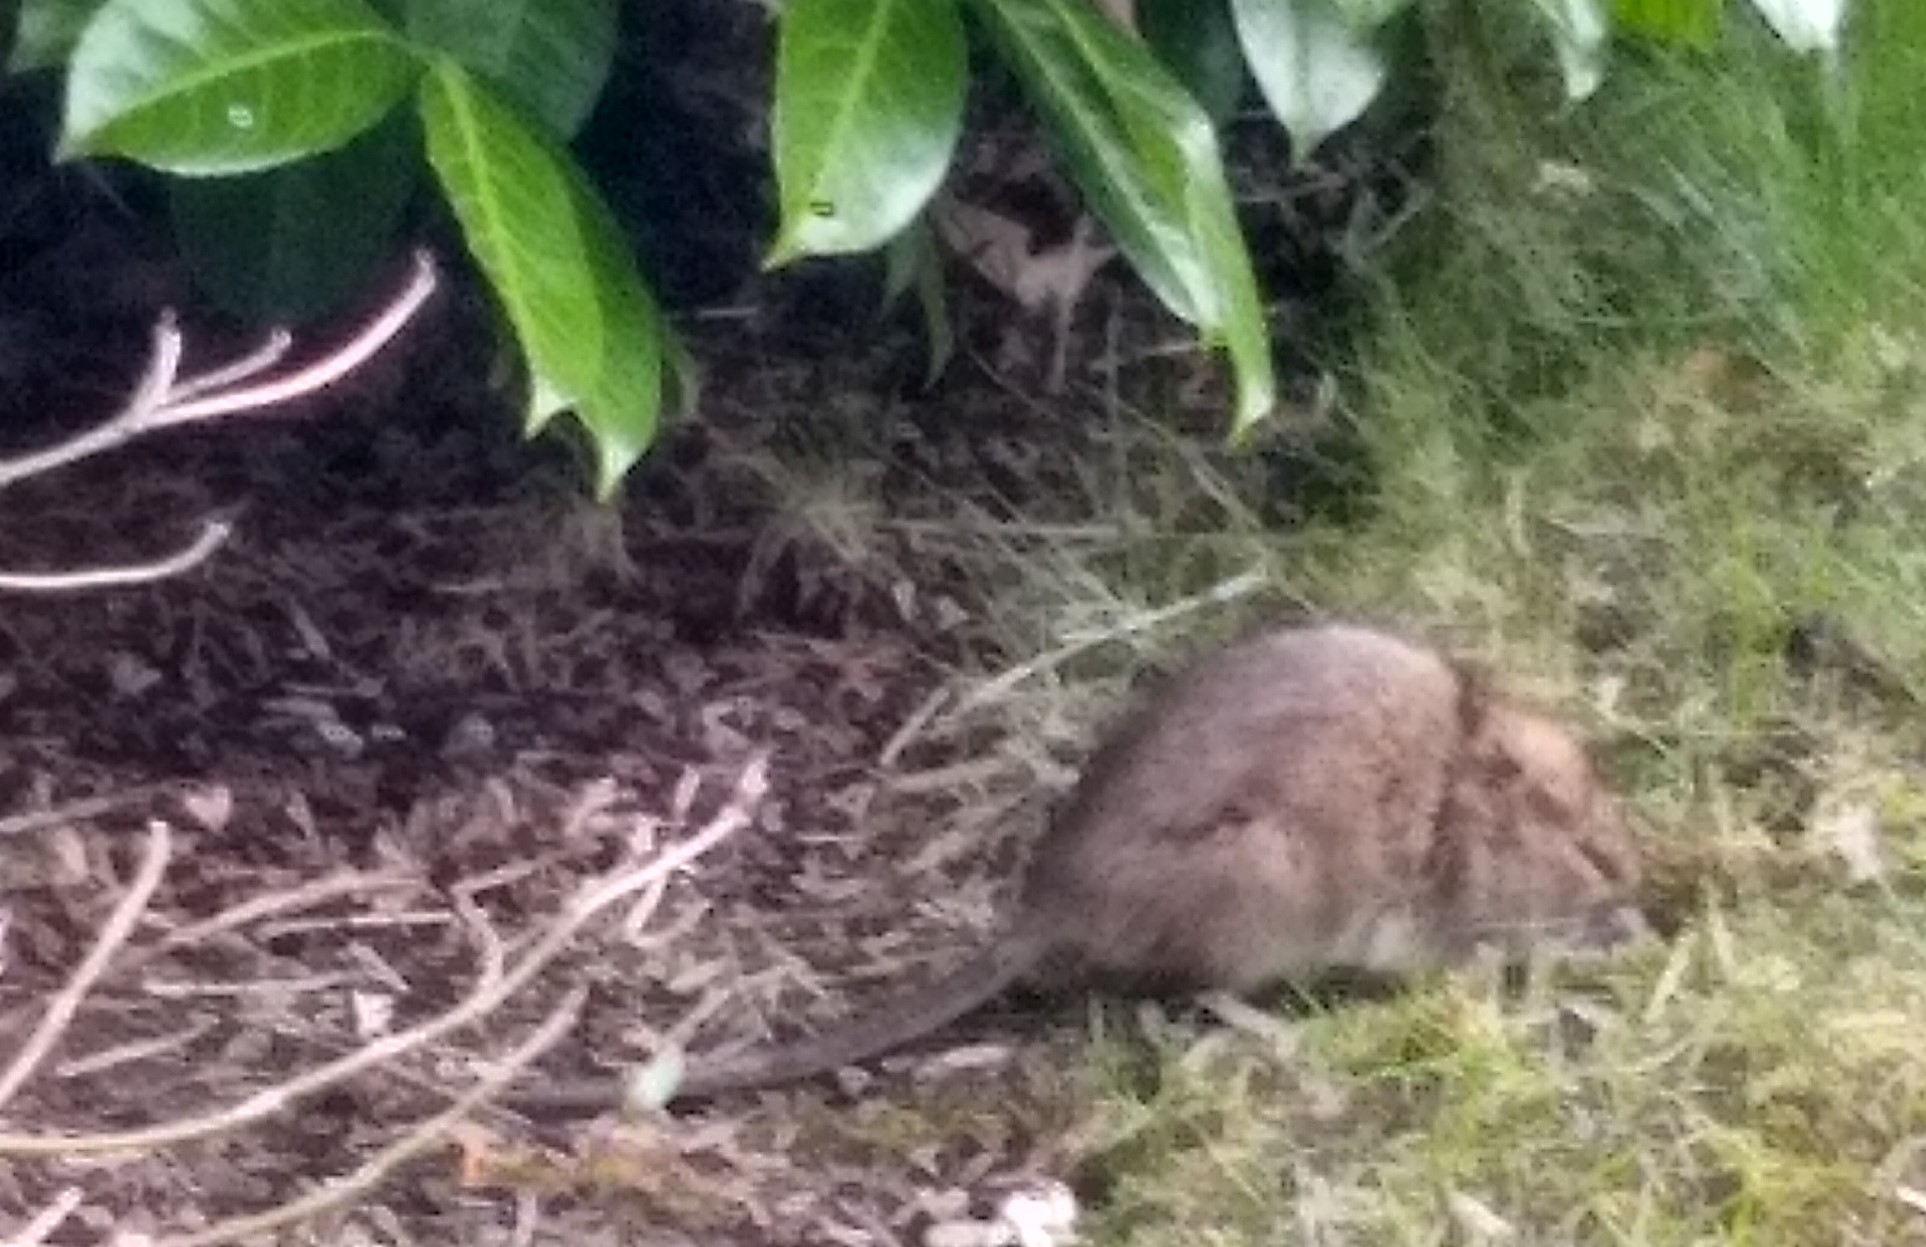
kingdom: Animalia
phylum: Chordata
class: Mammalia
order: Rodentia
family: Muridae
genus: Rattus
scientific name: Rattus norvegicus
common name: Brown rat
